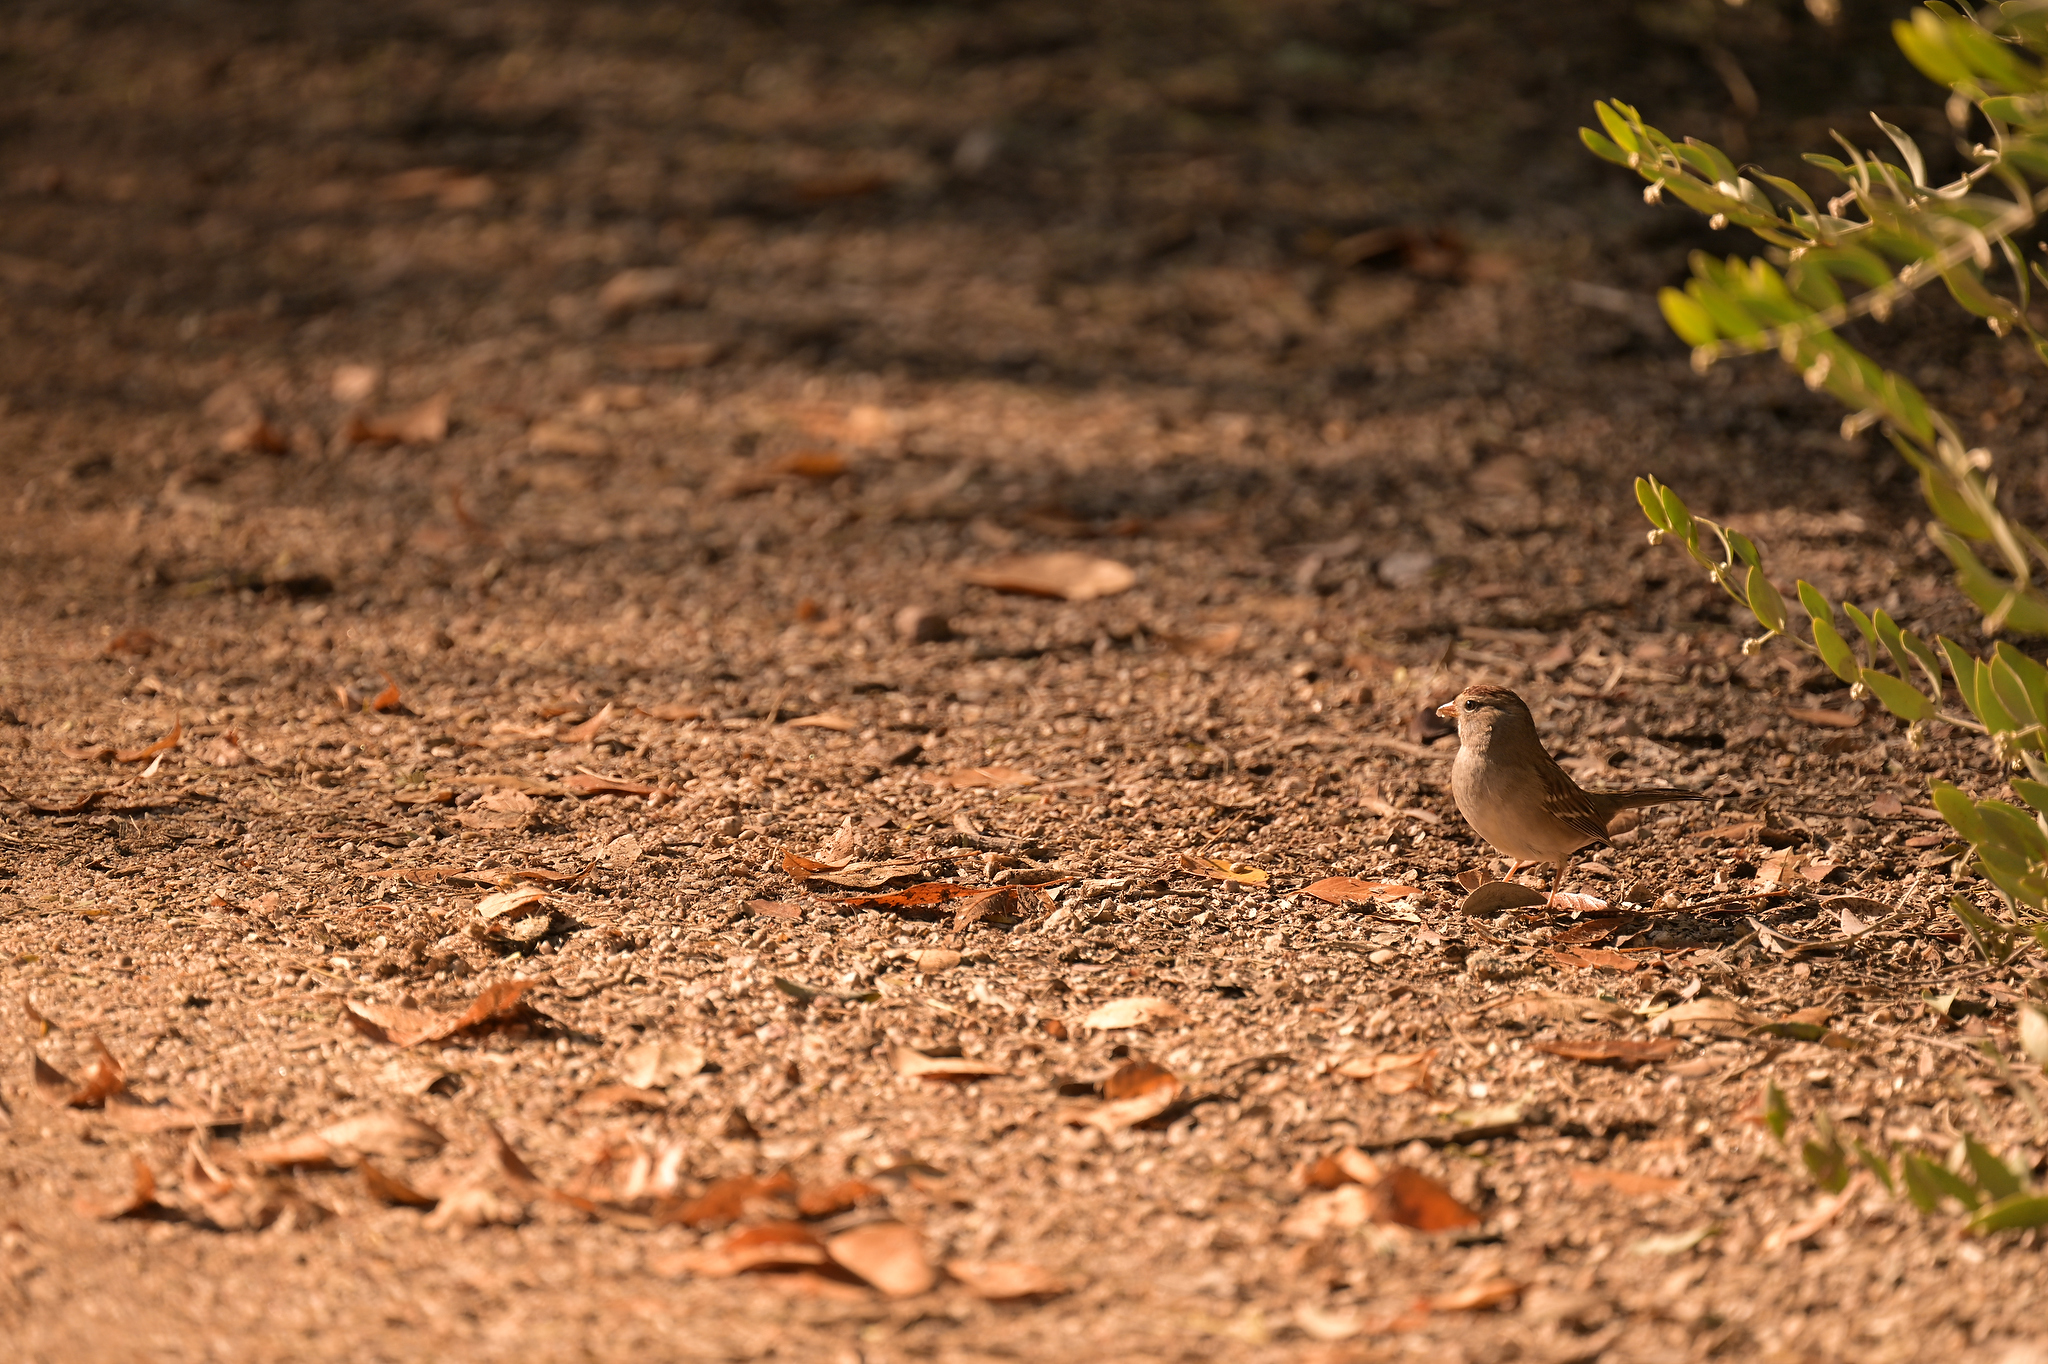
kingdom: Animalia
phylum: Chordata
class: Aves
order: Passeriformes
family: Passerellidae
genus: Zonotrichia
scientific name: Zonotrichia leucophrys
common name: White-crowned sparrow
